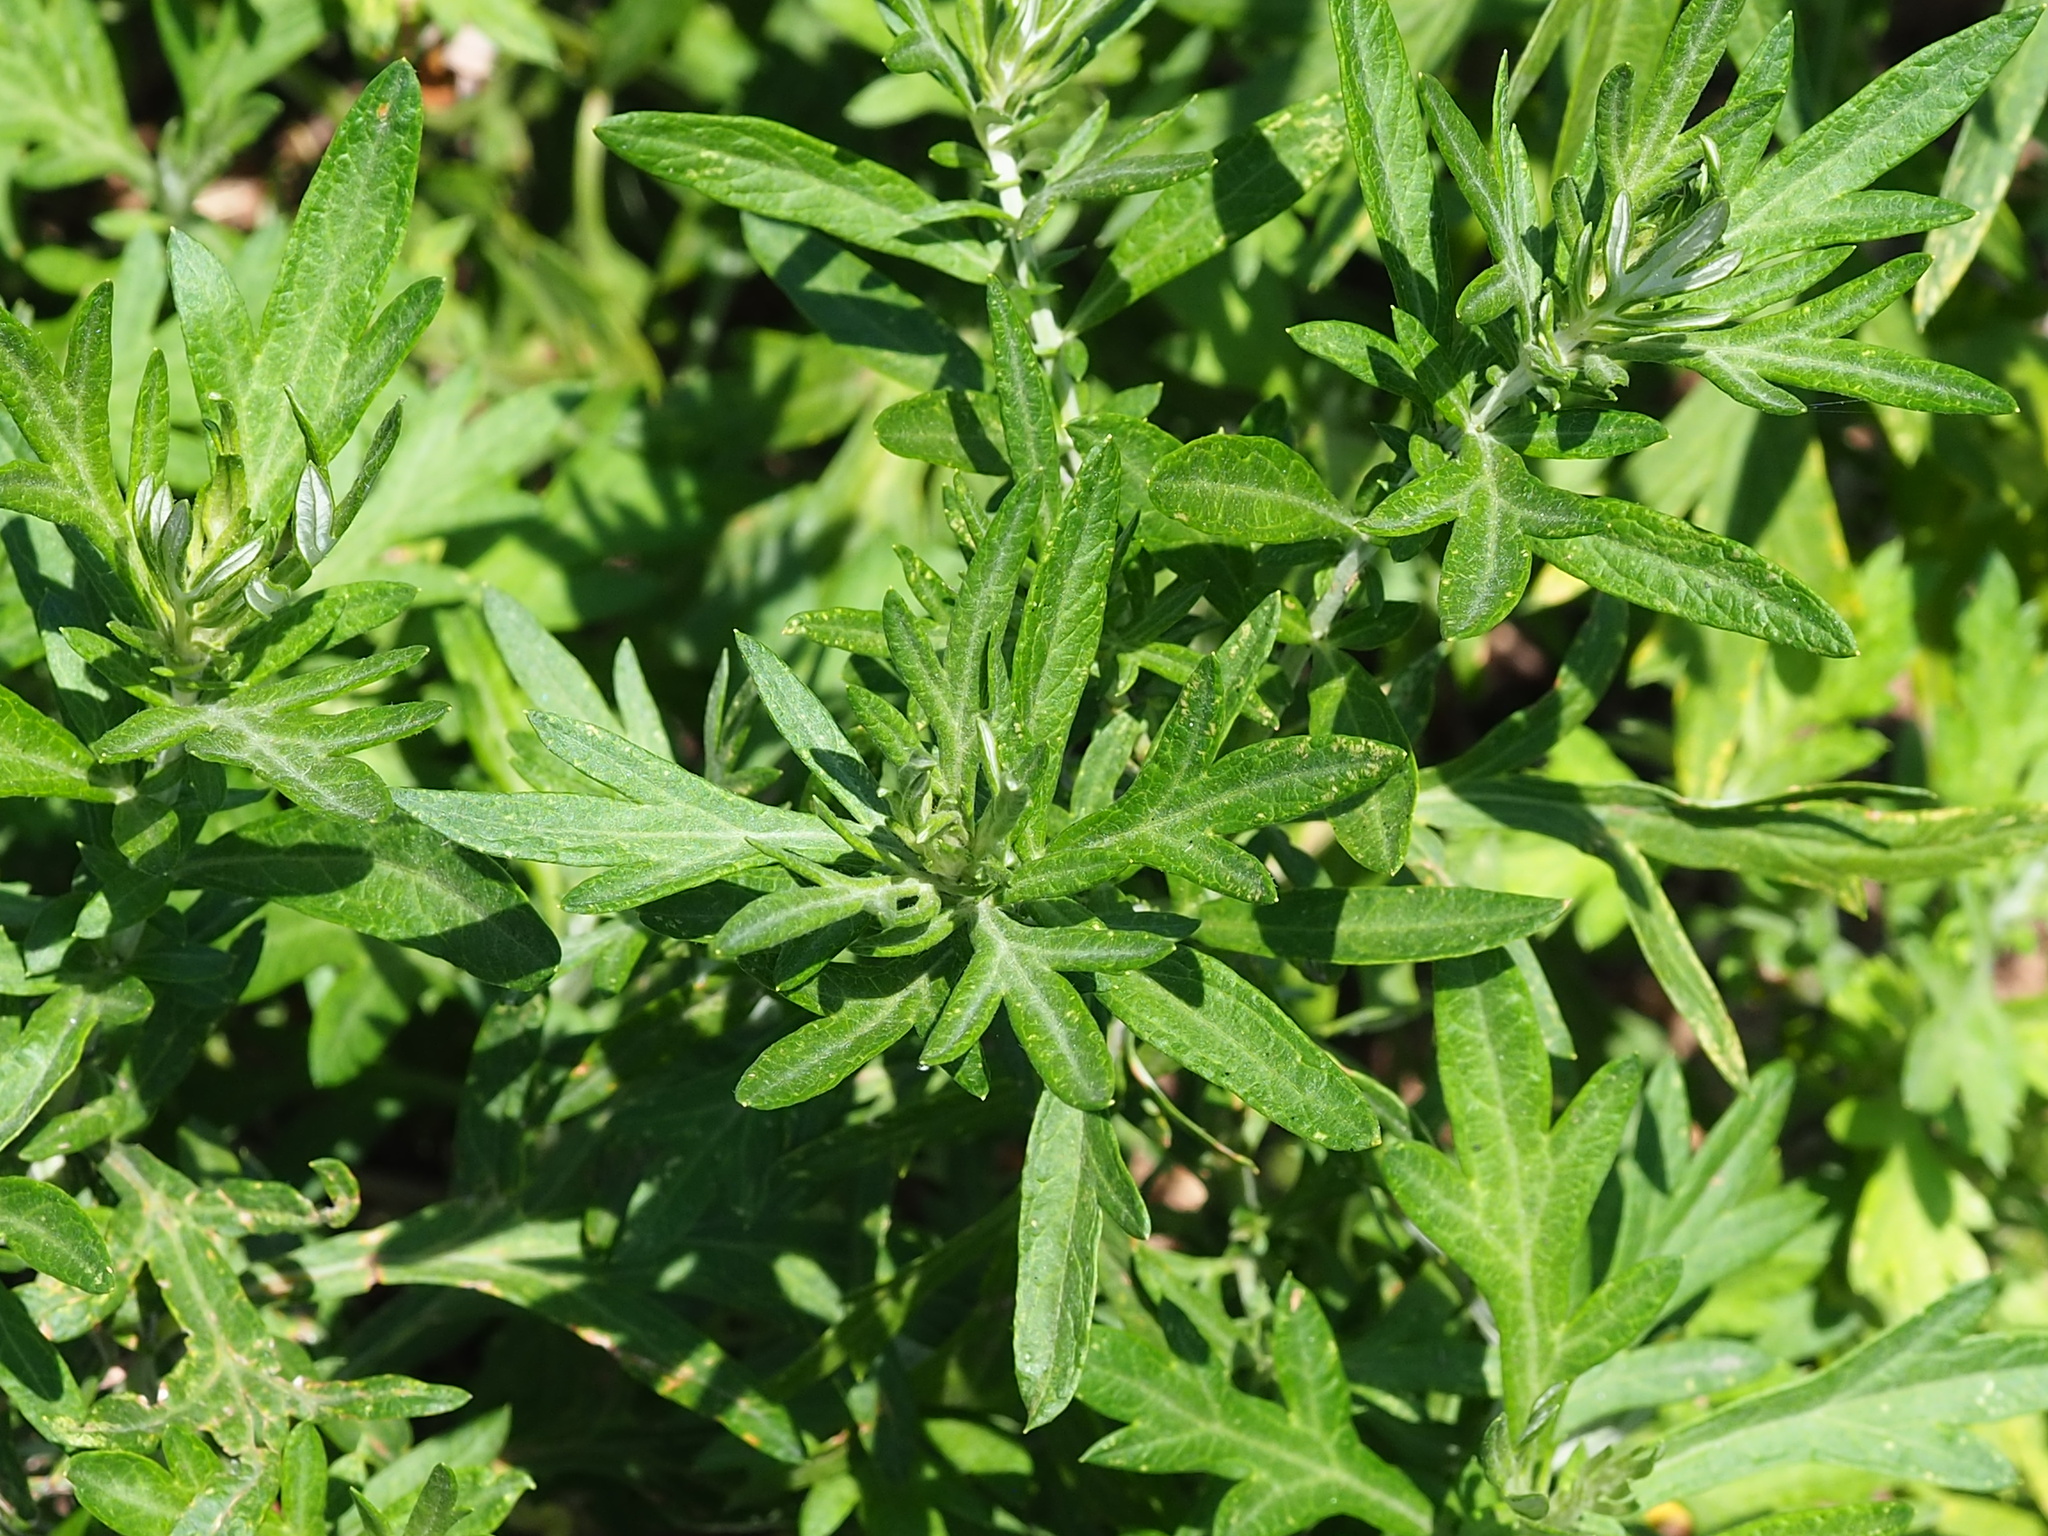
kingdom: Plantae
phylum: Tracheophyta
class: Magnoliopsida
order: Asterales
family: Asteraceae
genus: Artemisia
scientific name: Artemisia indica
